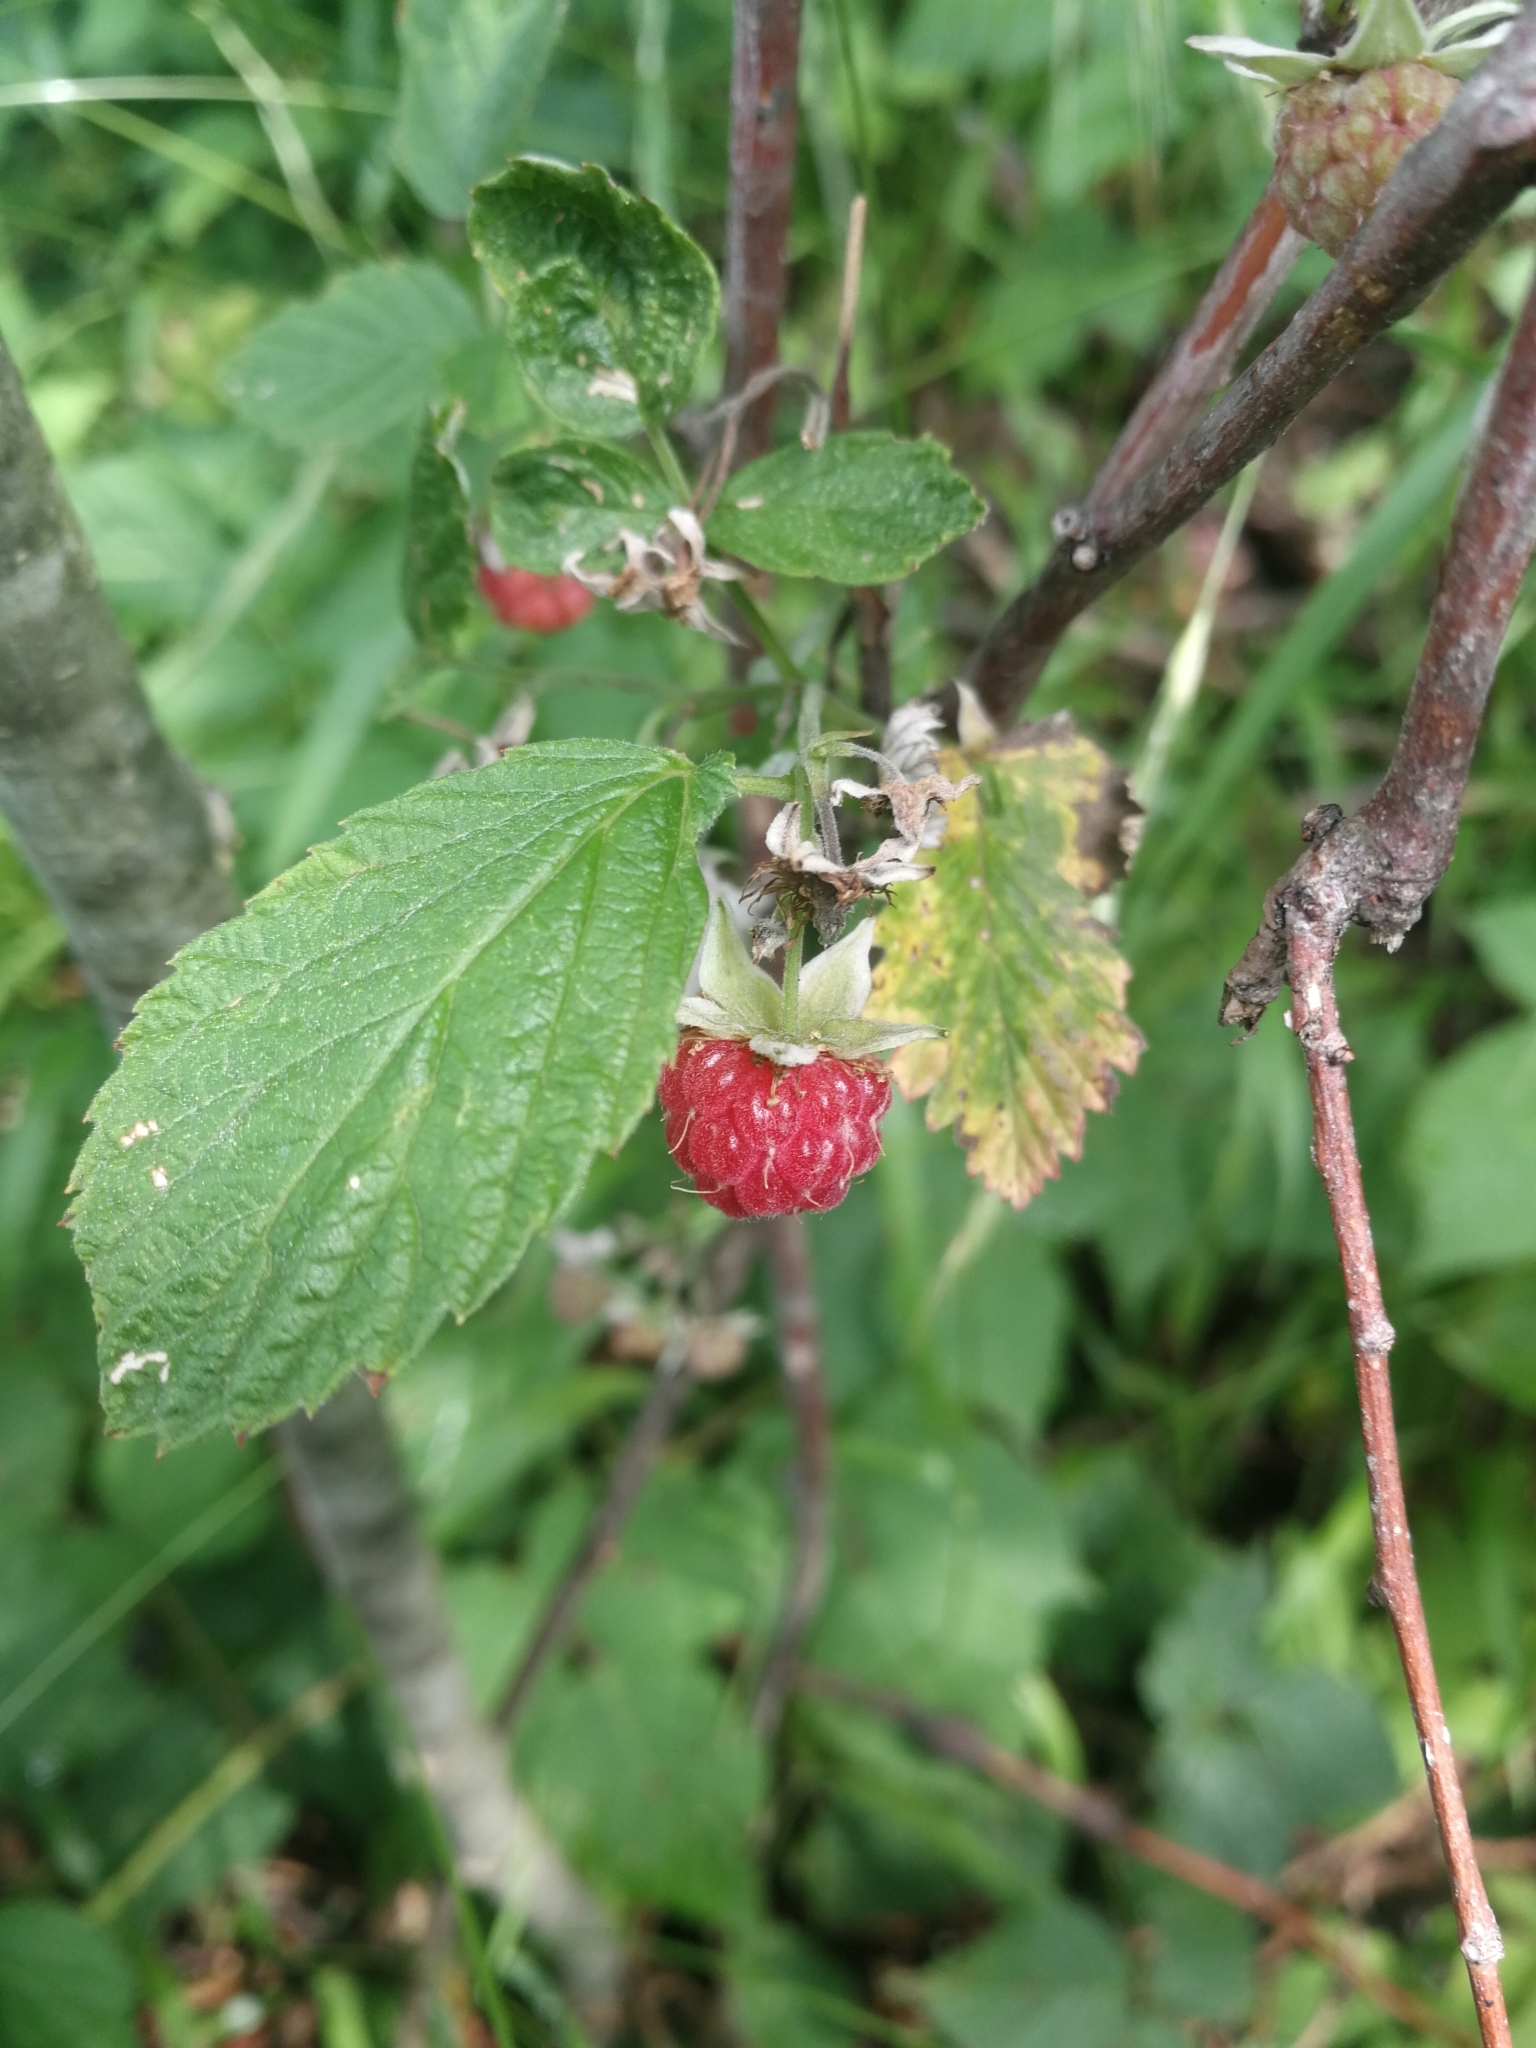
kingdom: Plantae
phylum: Tracheophyta
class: Magnoliopsida
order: Rosales
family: Rosaceae
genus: Rubus
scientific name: Rubus idaeus
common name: Raspberry
